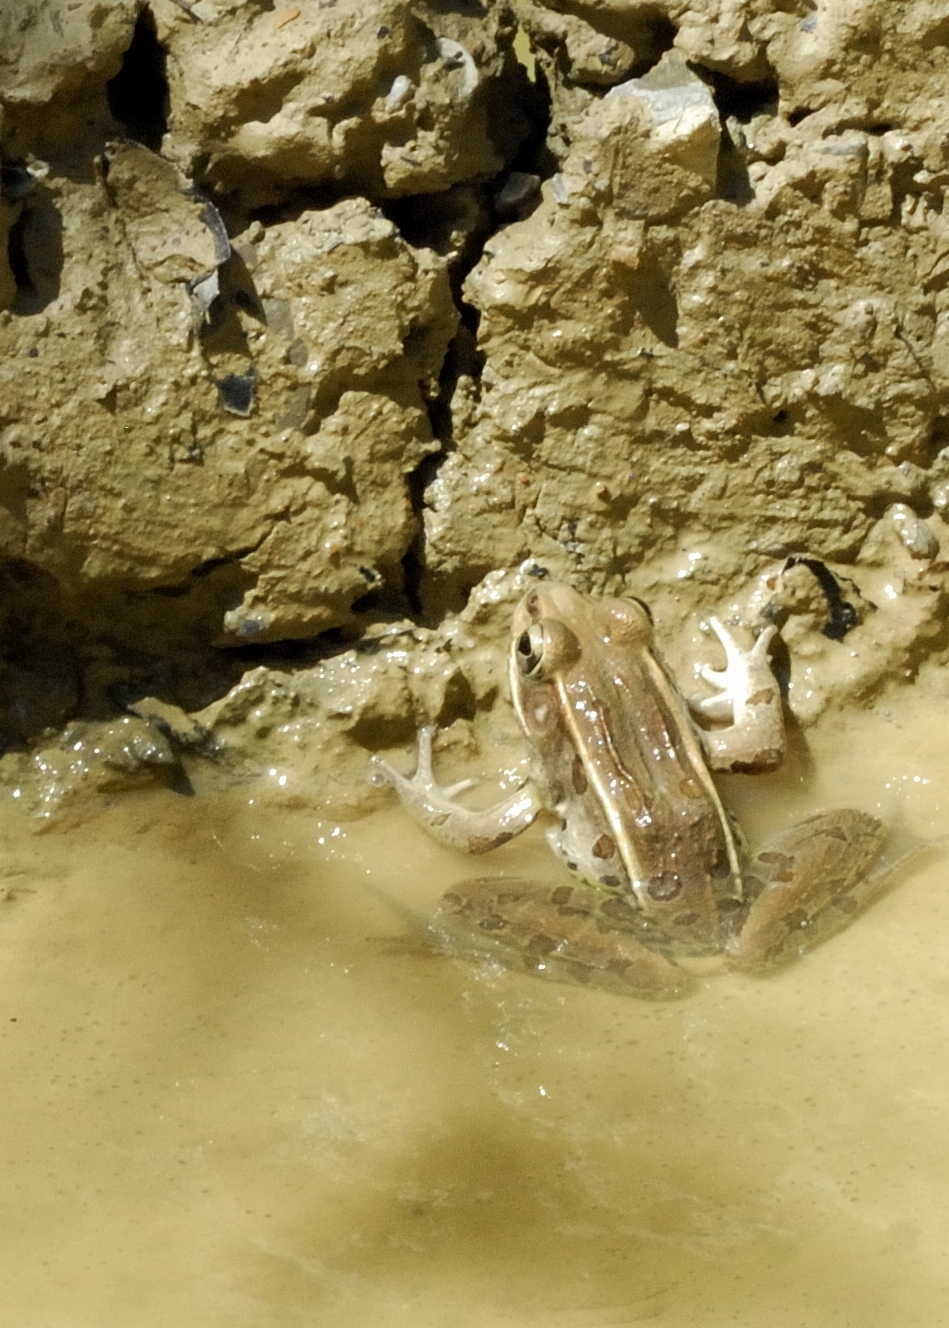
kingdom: Animalia
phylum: Chordata
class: Amphibia
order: Anura
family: Ranidae
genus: Lithobates
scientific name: Lithobates sphenocephalus
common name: Southern leopard frog
